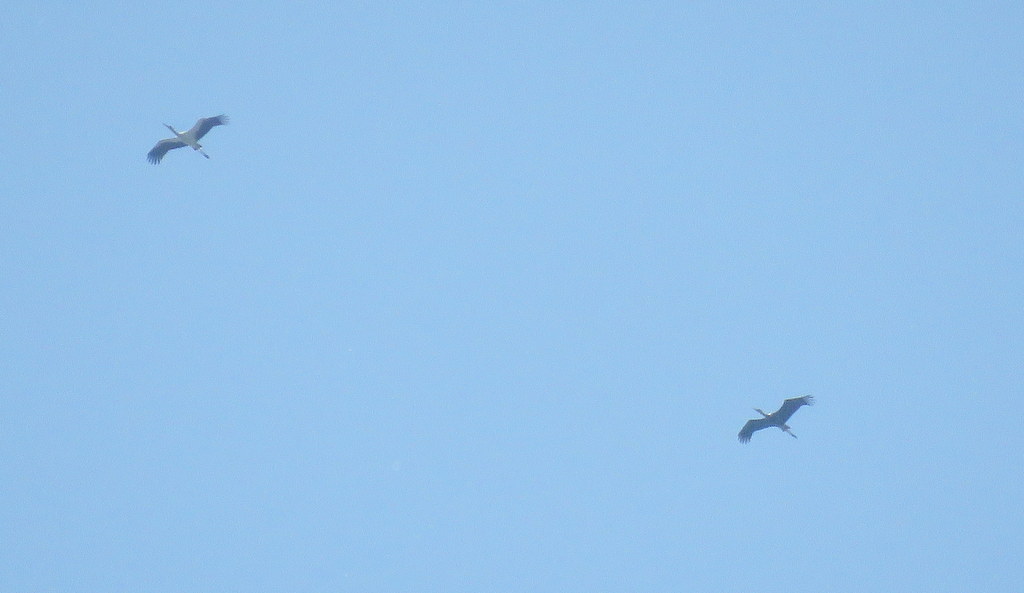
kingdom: Animalia
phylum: Chordata
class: Aves
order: Ciconiiformes
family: Ciconiidae
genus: Ciconia
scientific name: Ciconia maguari
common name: Maguari stork
